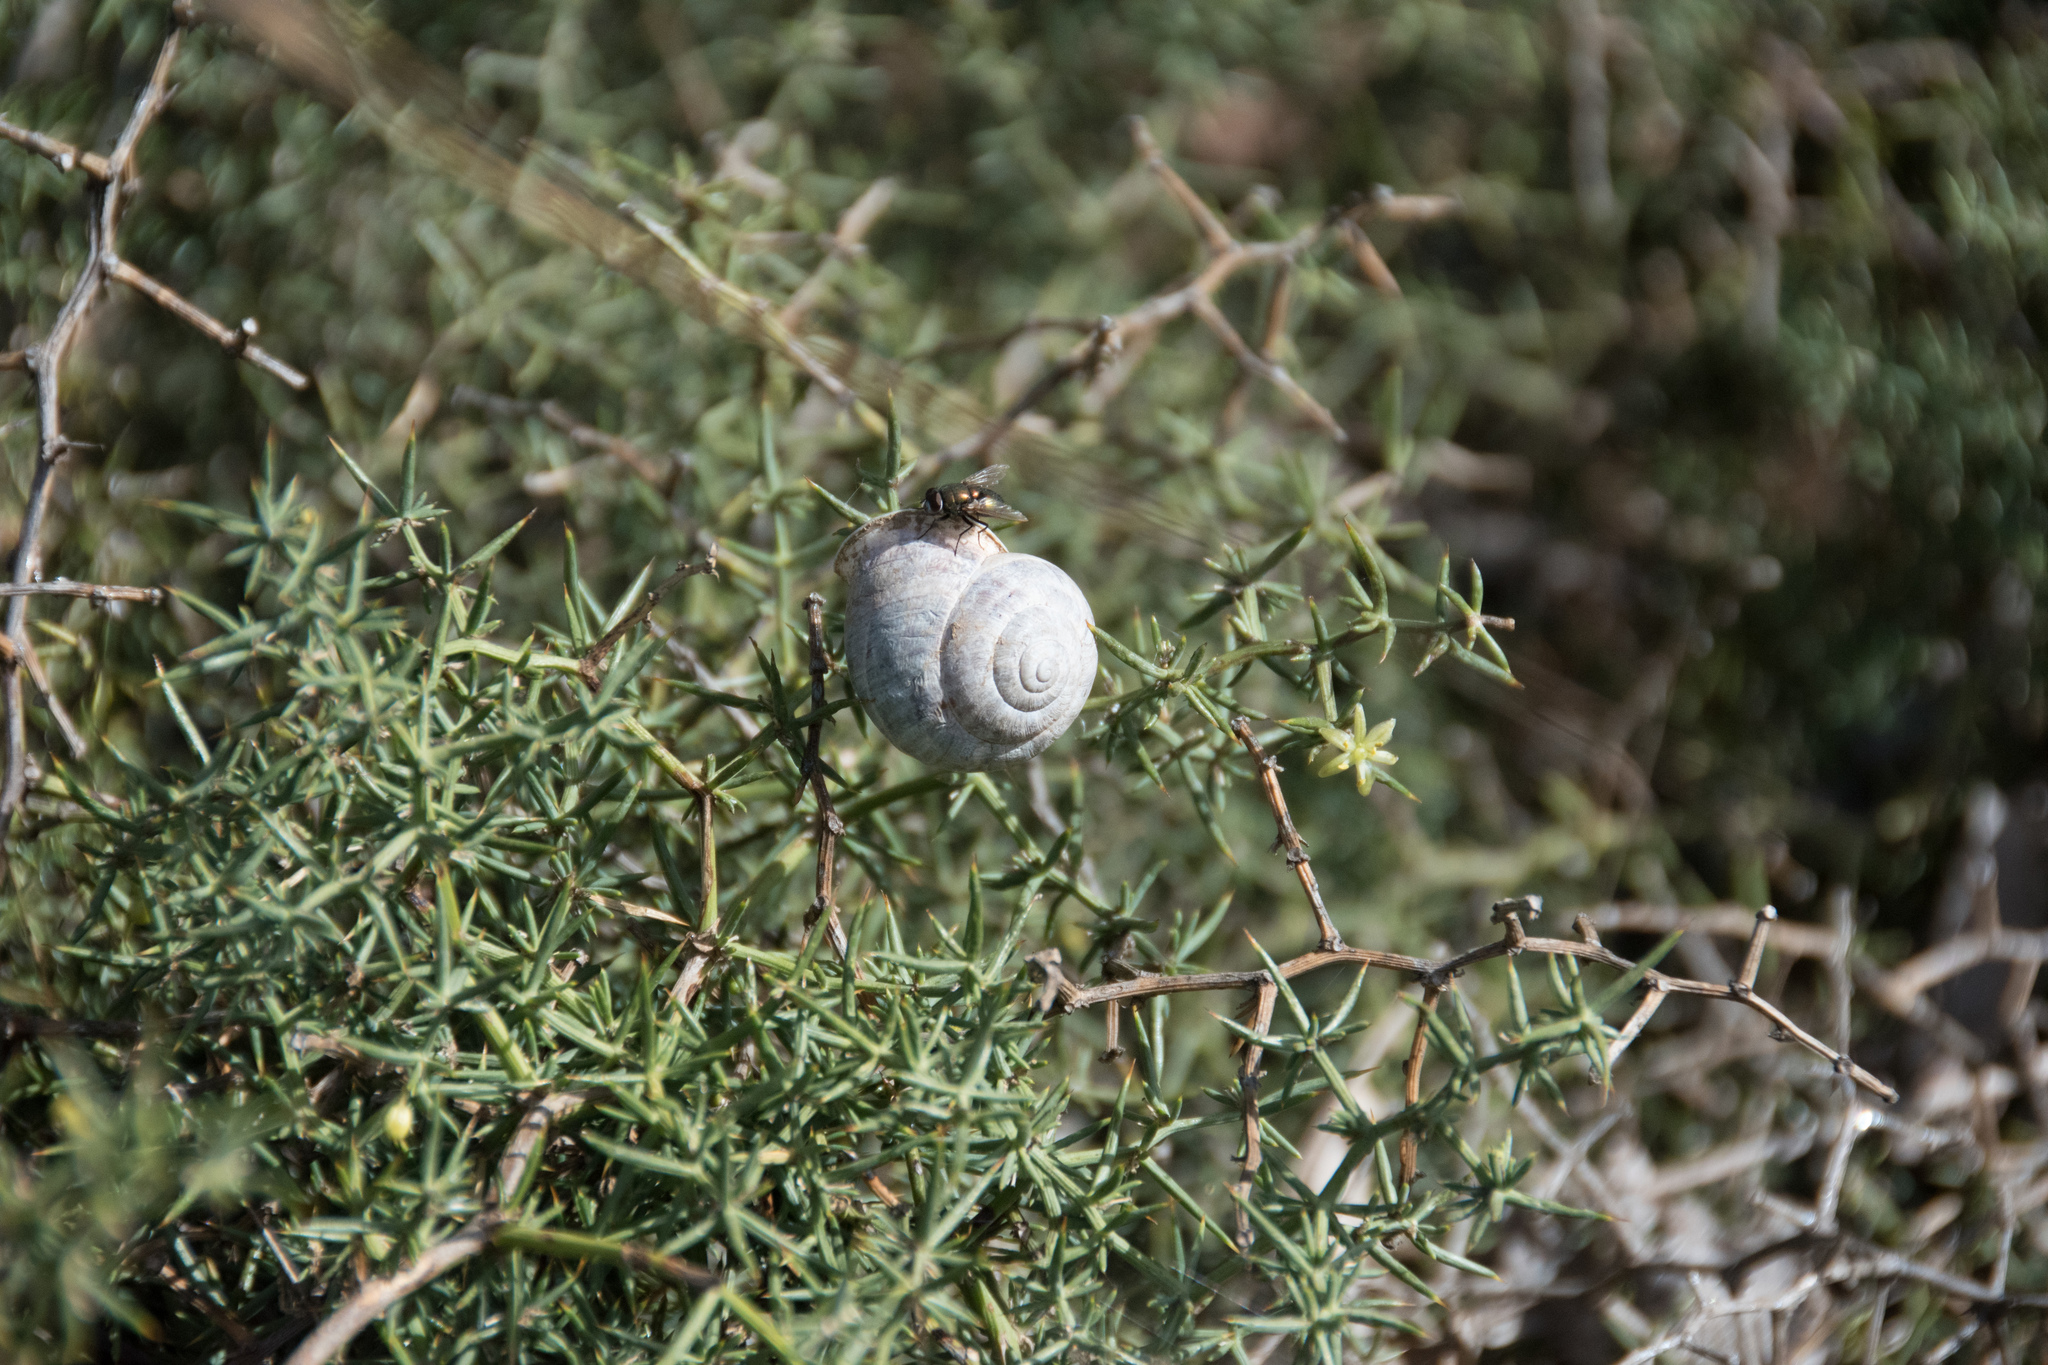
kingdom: Animalia
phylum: Mollusca
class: Gastropoda
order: Stylommatophora
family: Helicidae
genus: Eobania
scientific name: Eobania vermiculata
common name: Chocolateband snail
